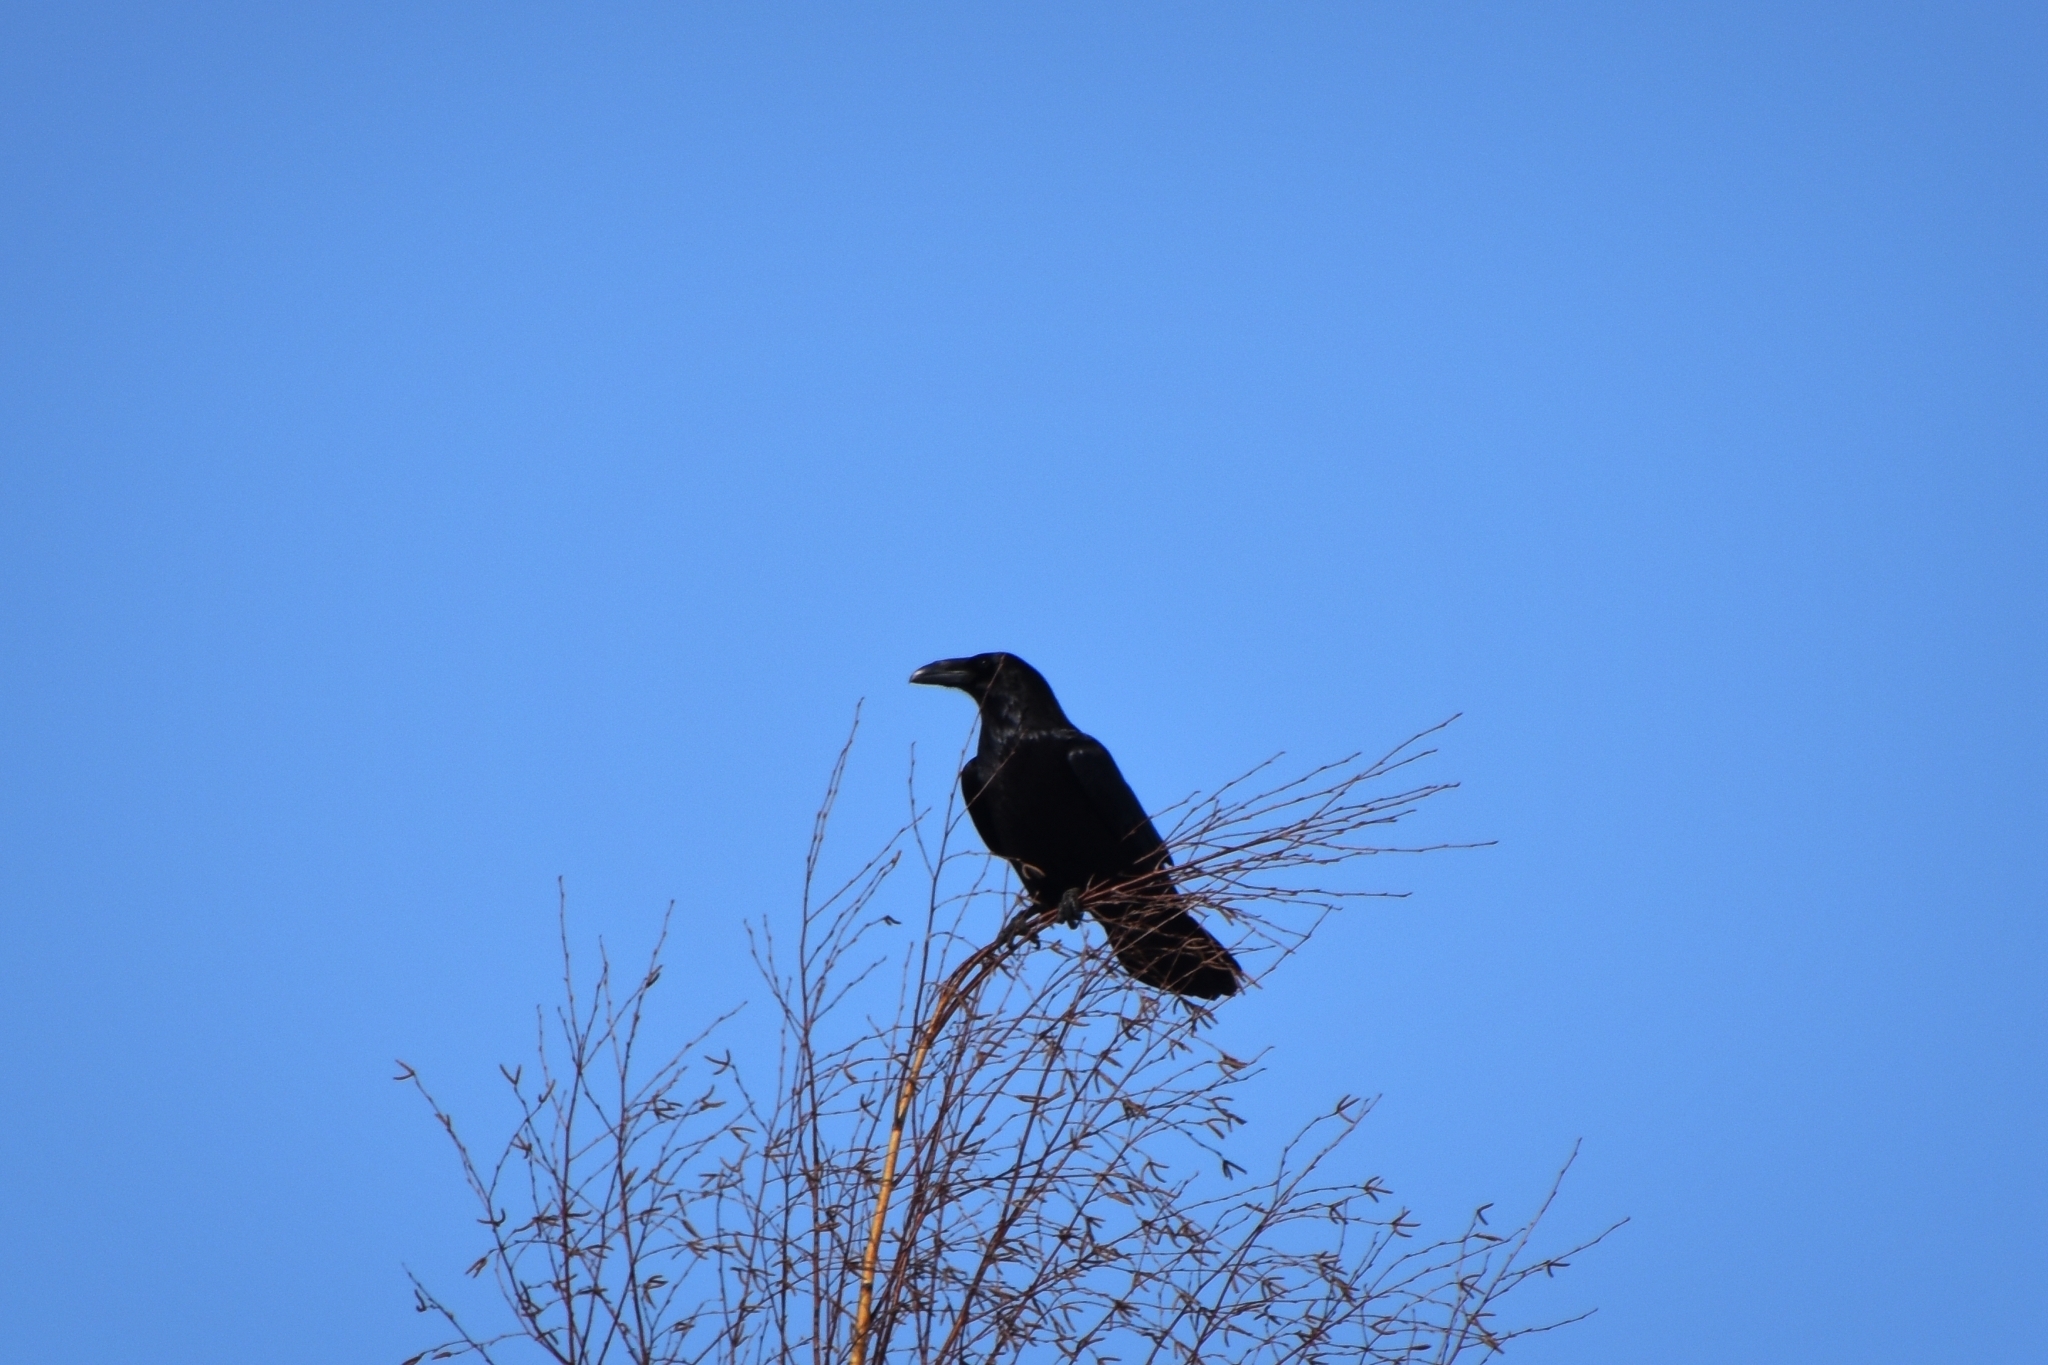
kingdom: Animalia
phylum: Chordata
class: Aves
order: Passeriformes
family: Corvidae
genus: Corvus
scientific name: Corvus corax
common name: Common raven
